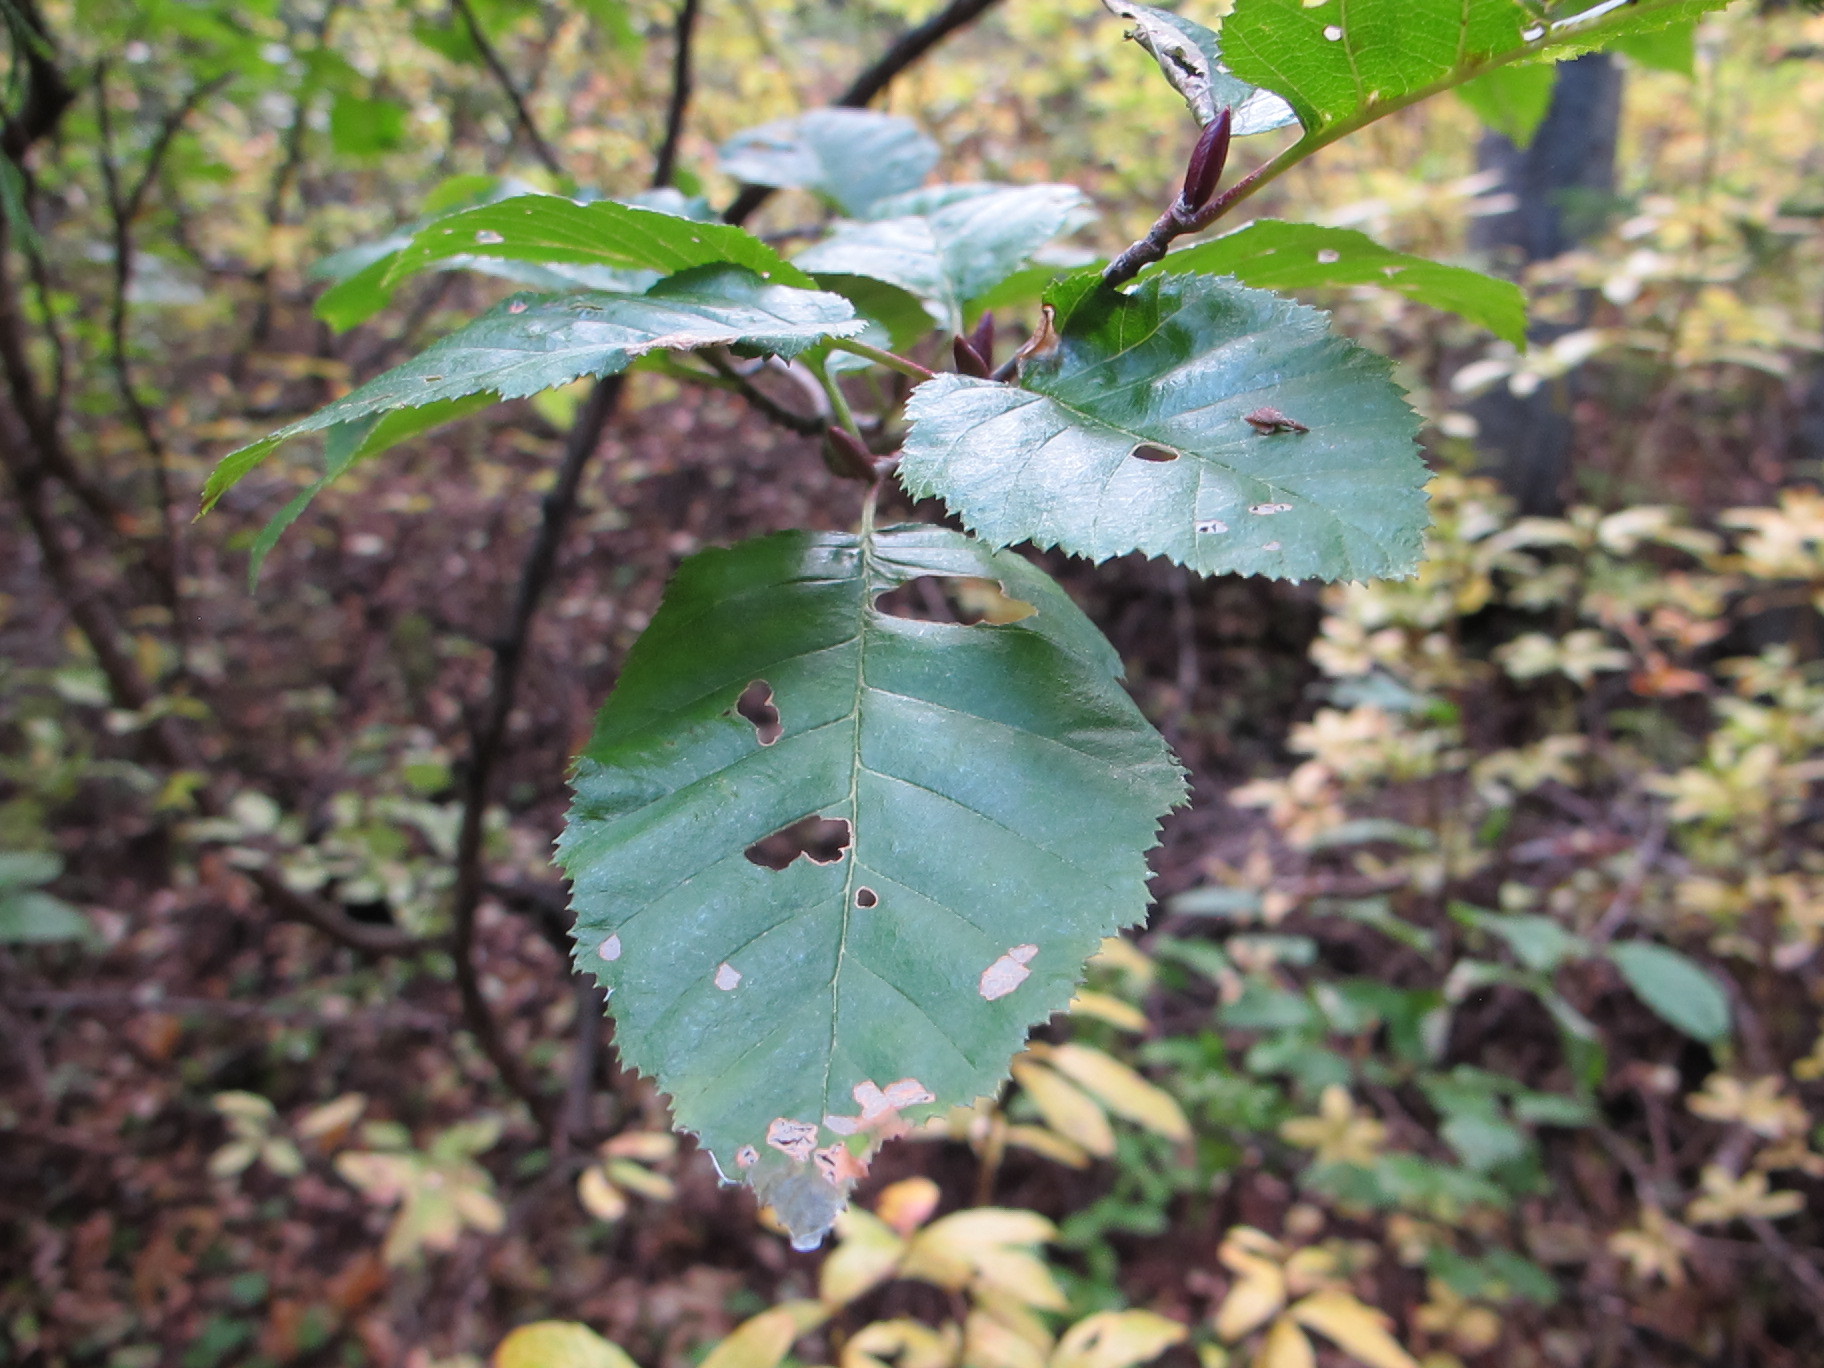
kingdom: Plantae
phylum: Tracheophyta
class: Magnoliopsida
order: Fagales
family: Betulaceae
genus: Alnus
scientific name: Alnus alnobetula
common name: Green alder
